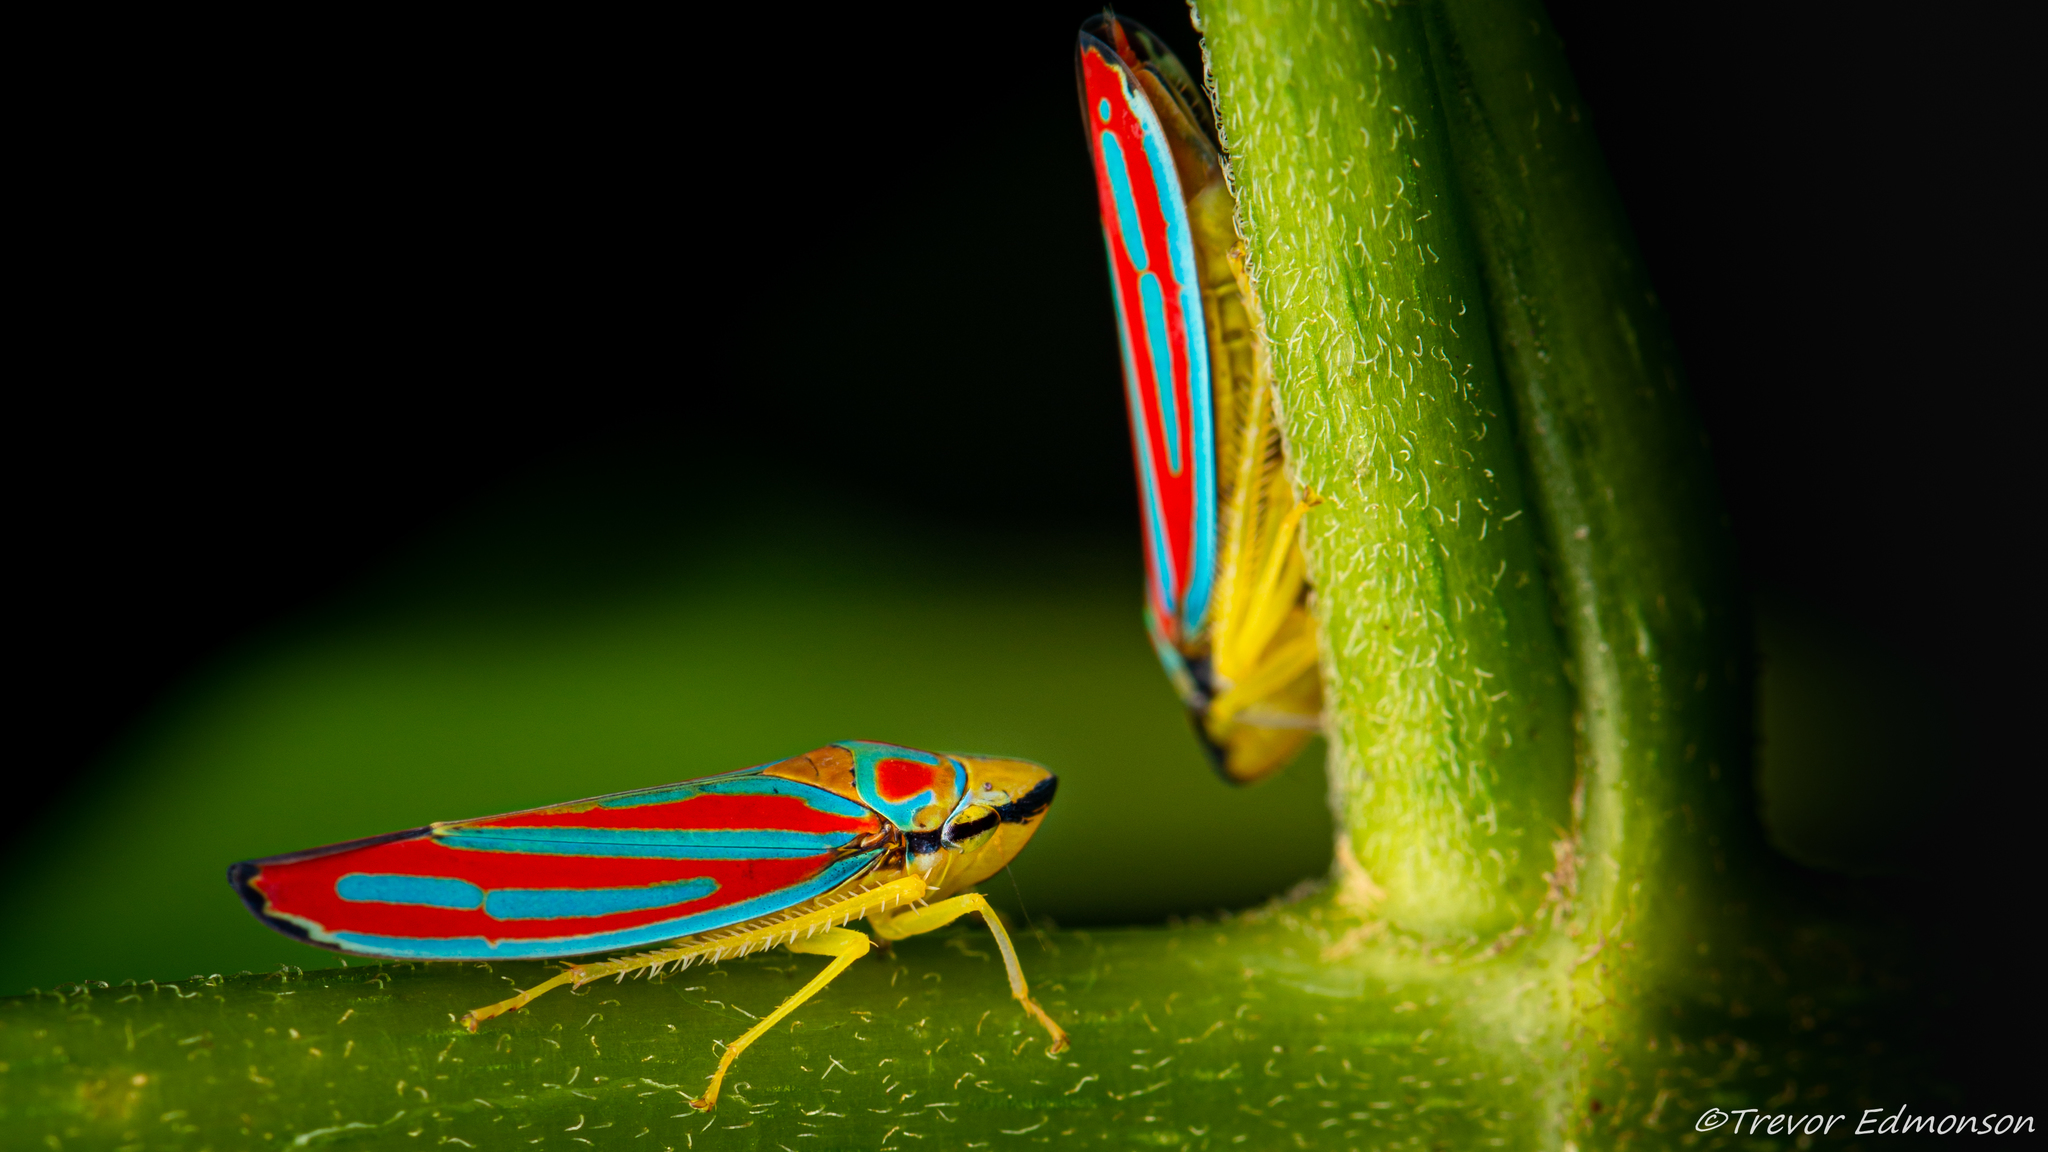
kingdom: Animalia
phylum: Arthropoda
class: Insecta
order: Hemiptera
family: Cicadellidae
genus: Graphocephala
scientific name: Graphocephala coccinea
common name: Candy-striped leafhopper
